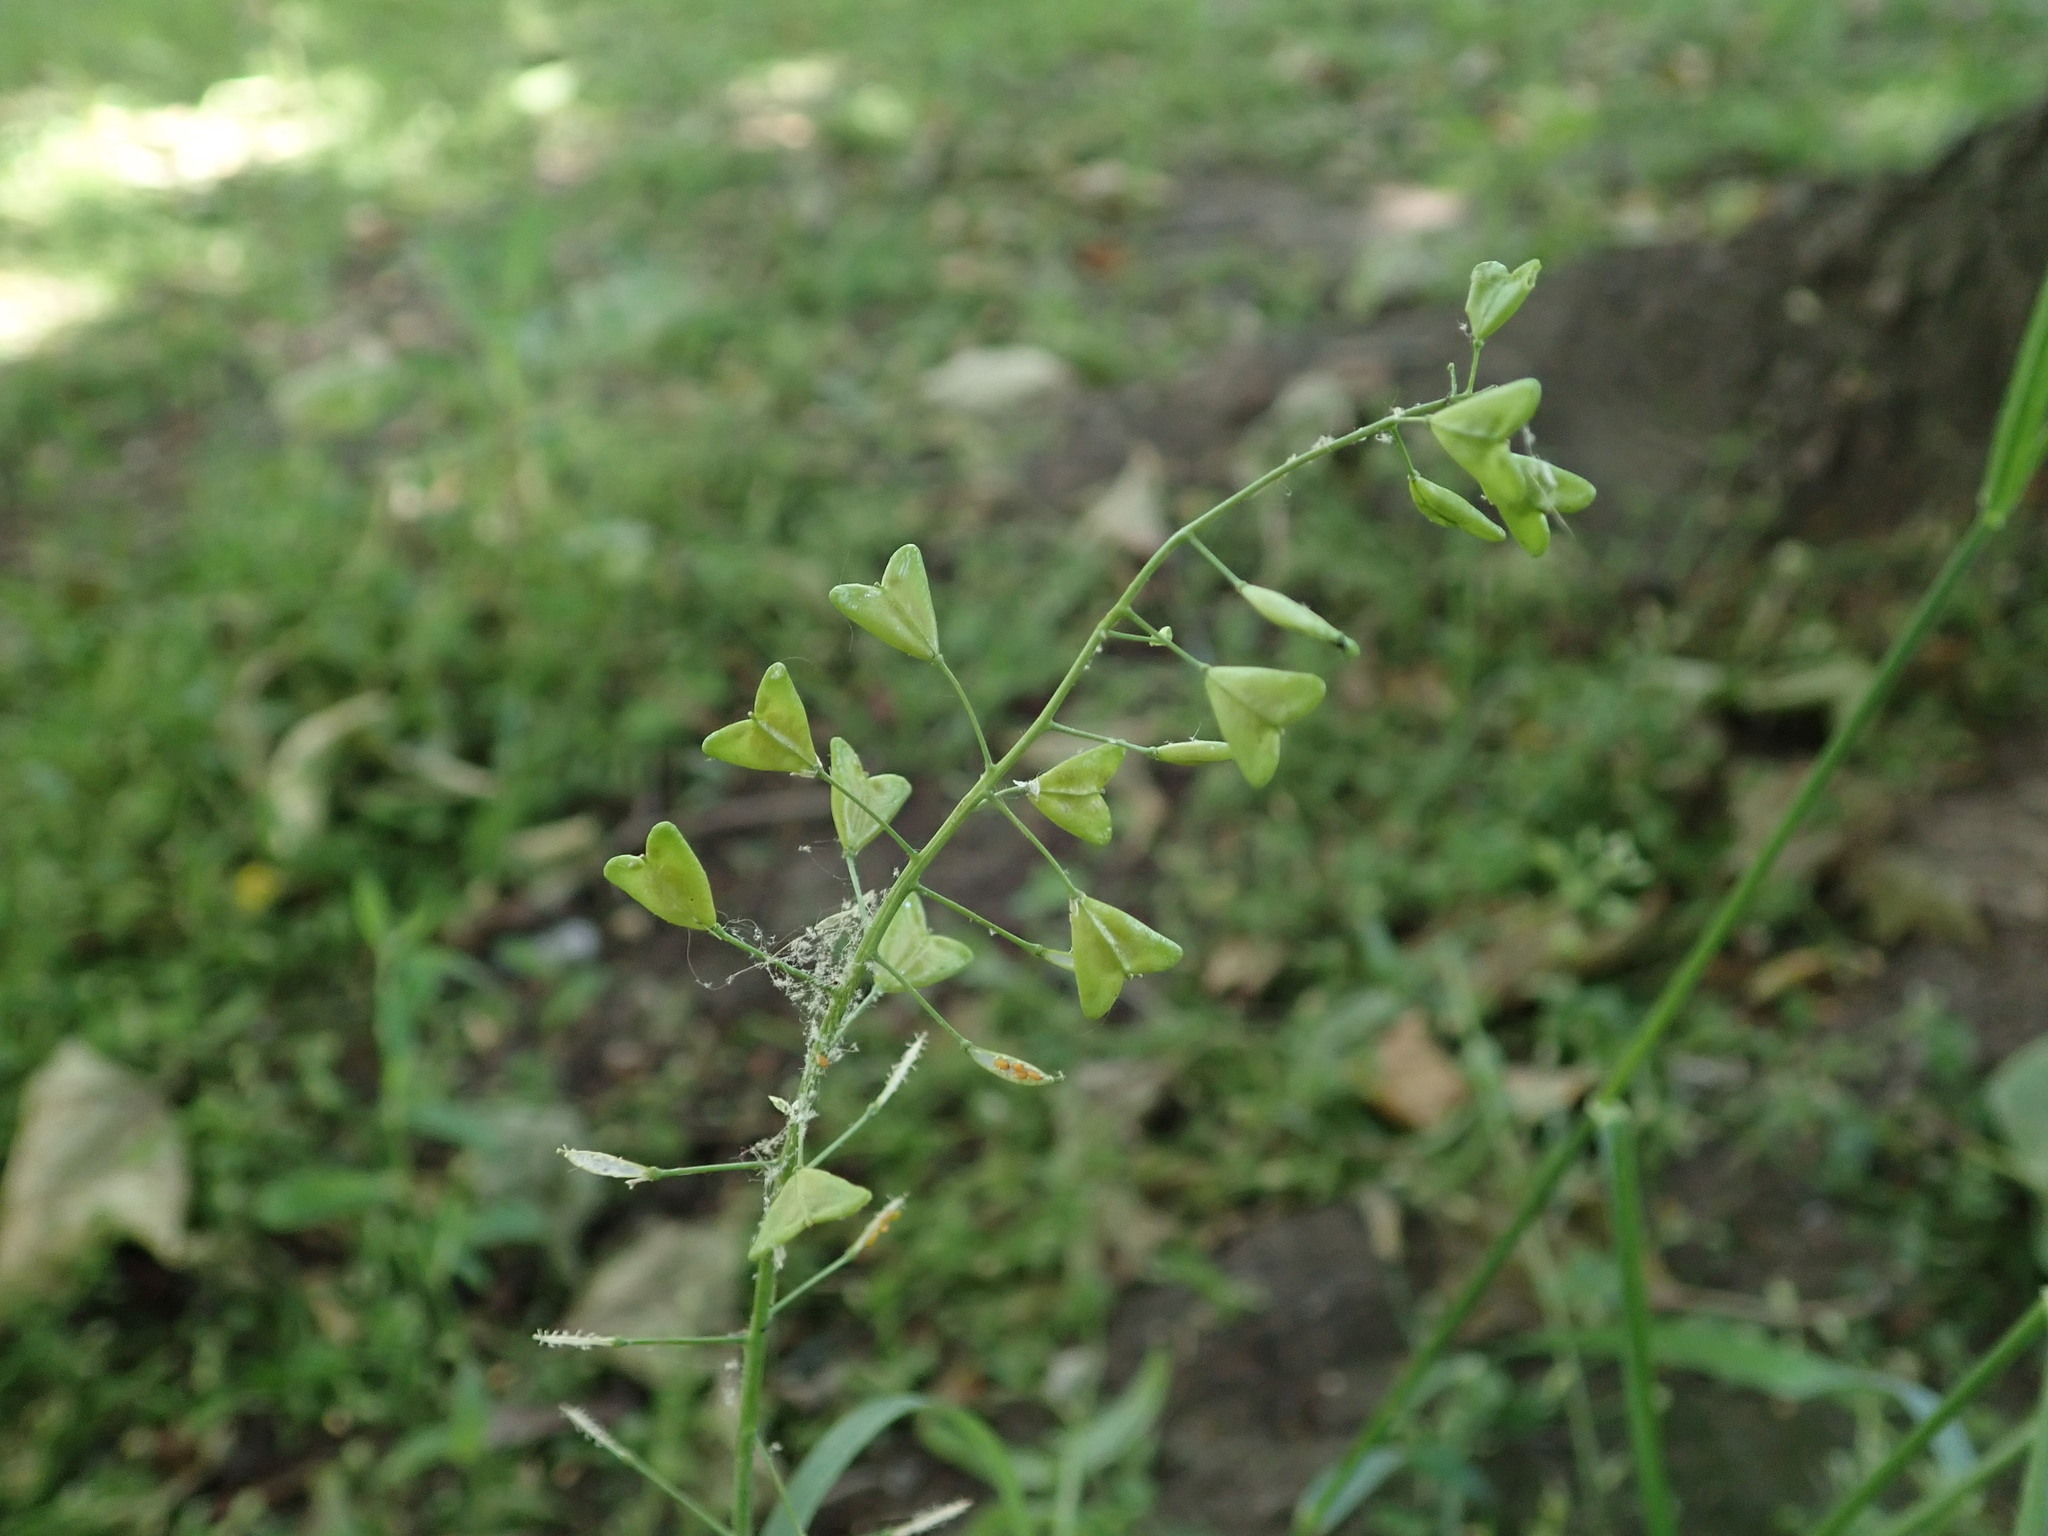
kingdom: Plantae
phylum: Tracheophyta
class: Magnoliopsida
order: Brassicales
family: Brassicaceae
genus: Capsella
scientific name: Capsella bursa-pastoris
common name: Shepherd's purse
